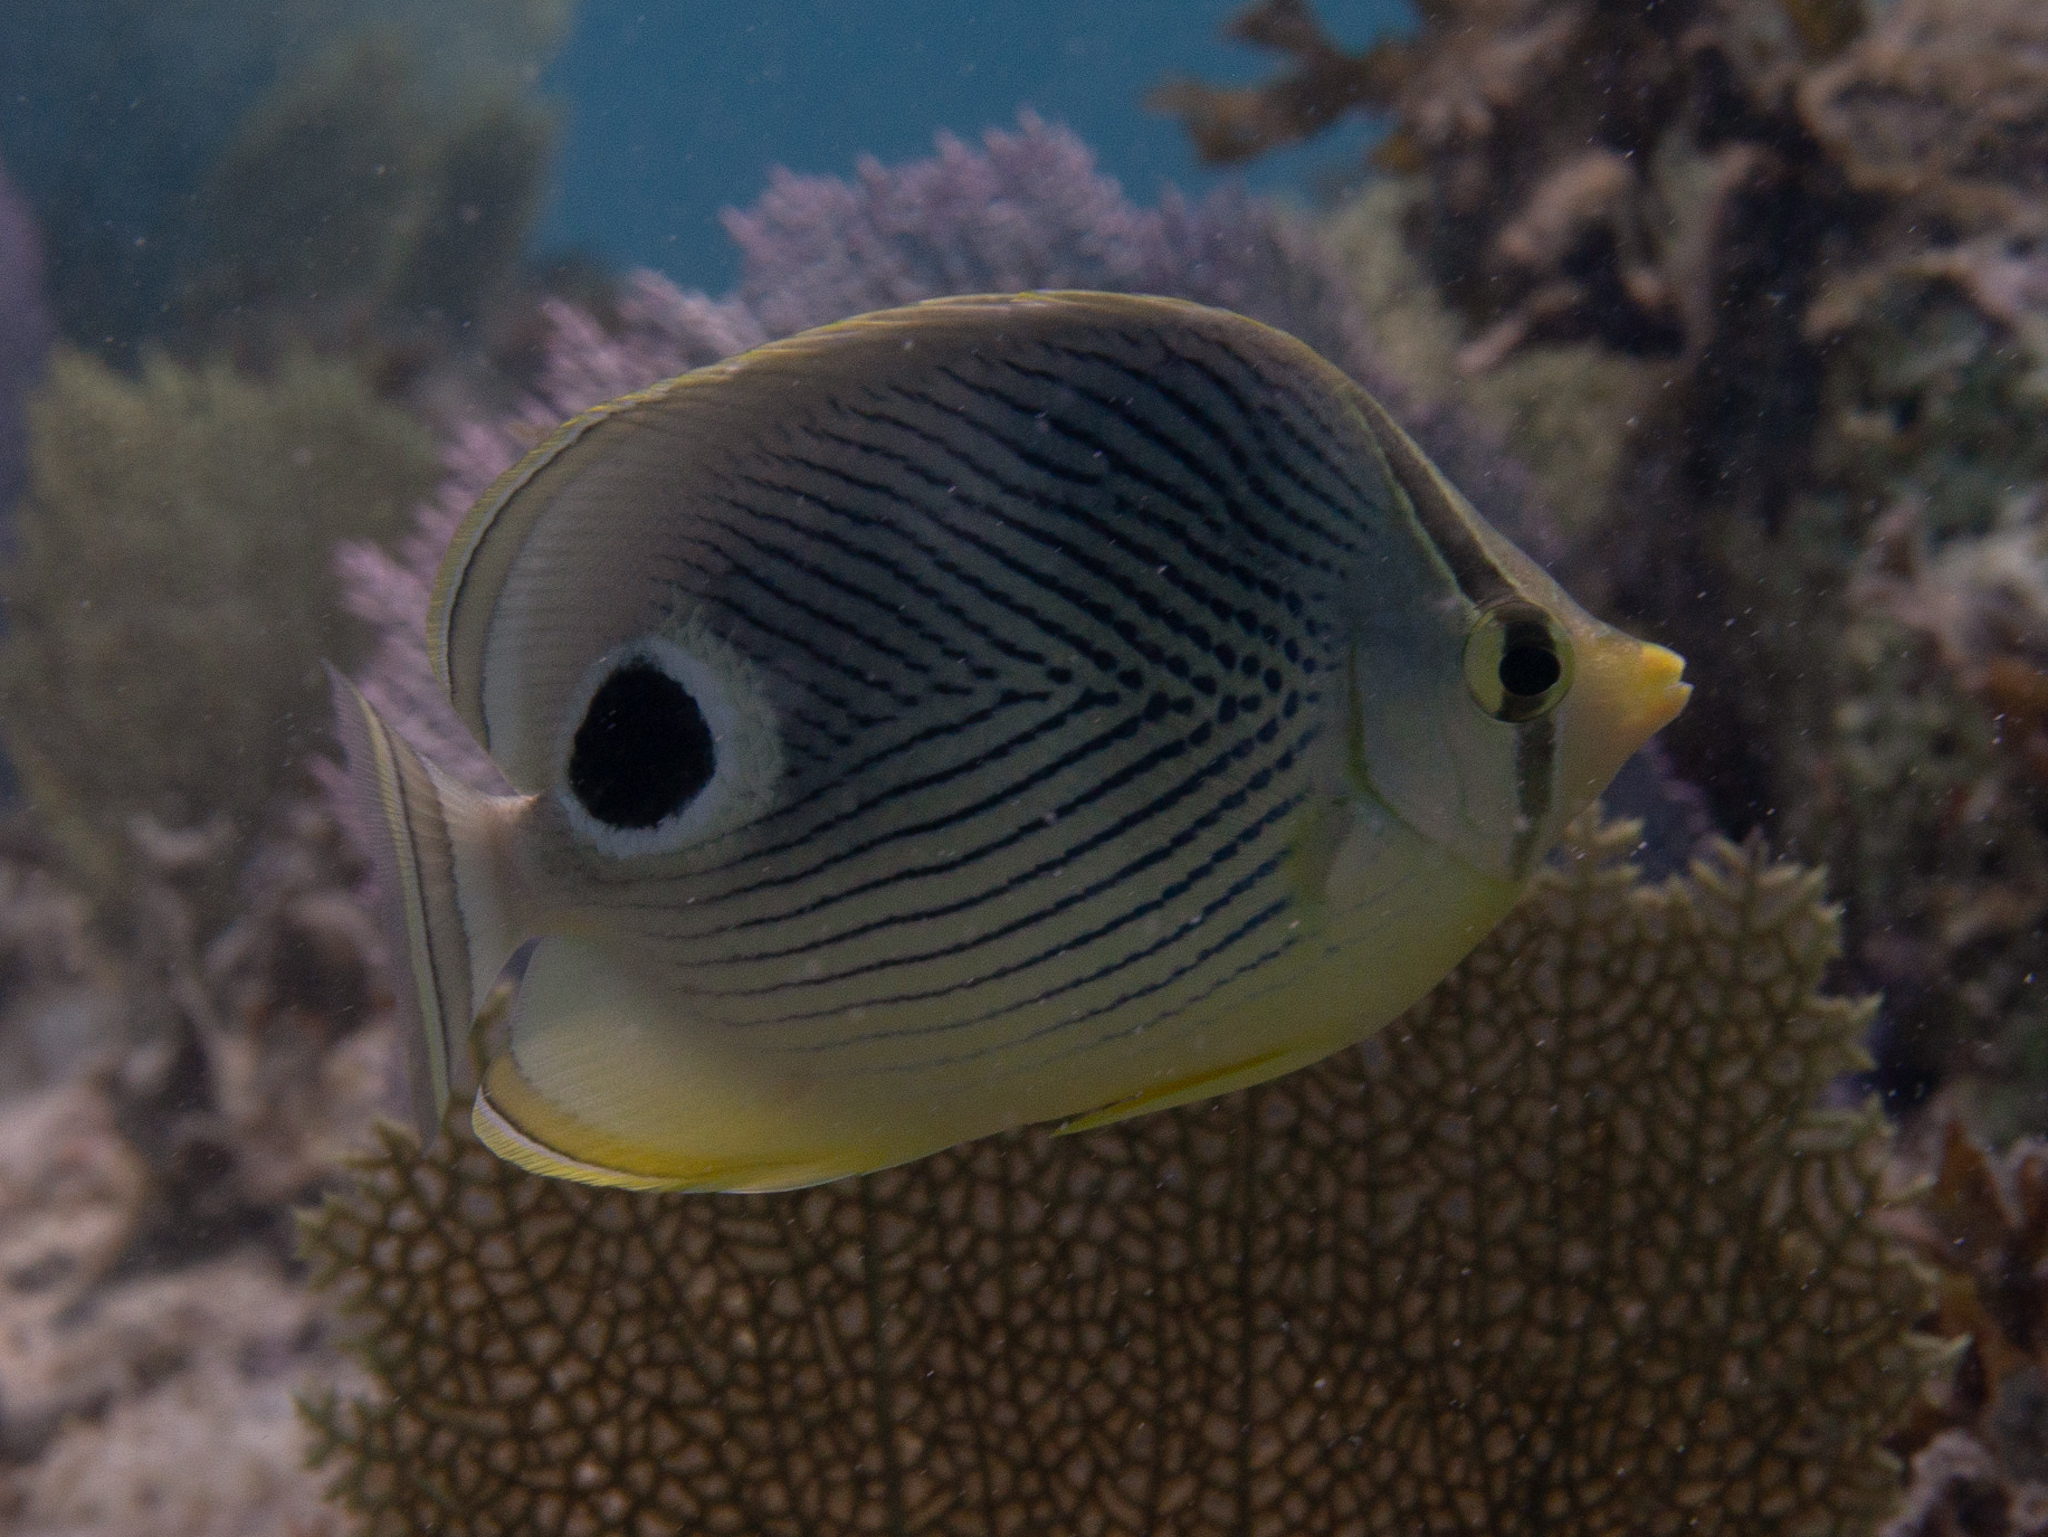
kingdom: Animalia
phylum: Chordata
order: Perciformes
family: Chaetodontidae
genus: Chaetodon
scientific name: Chaetodon capistratus
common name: Kete
